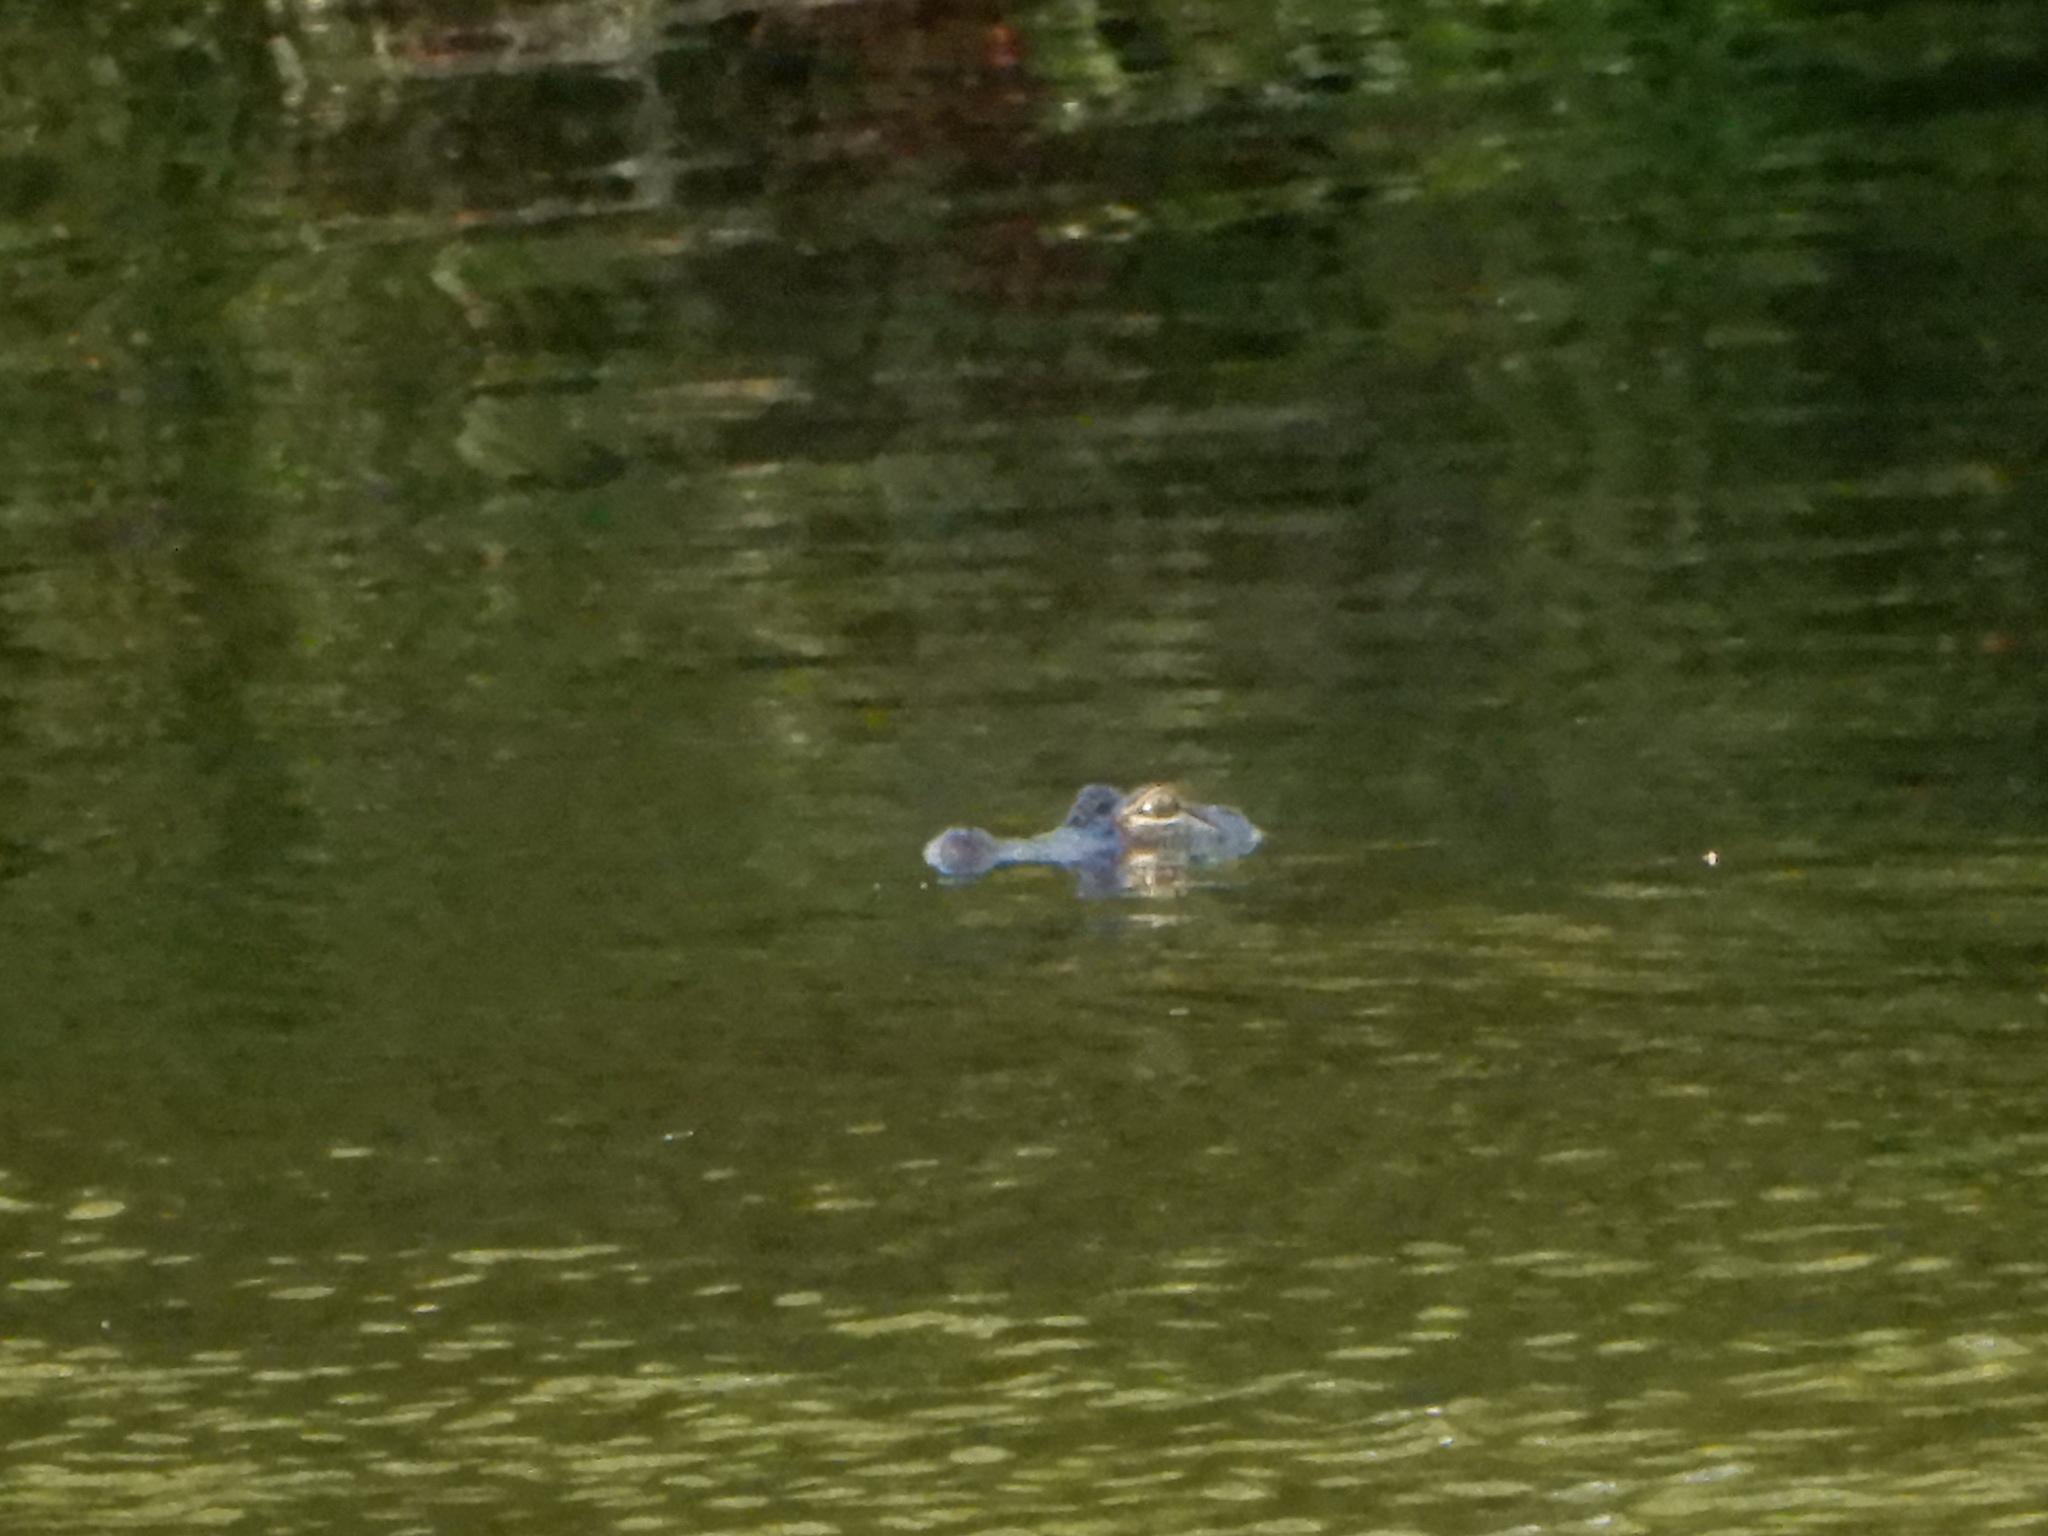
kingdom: Animalia
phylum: Chordata
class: Crocodylia
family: Alligatoridae
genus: Alligator
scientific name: Alligator mississippiensis
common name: American alligator
